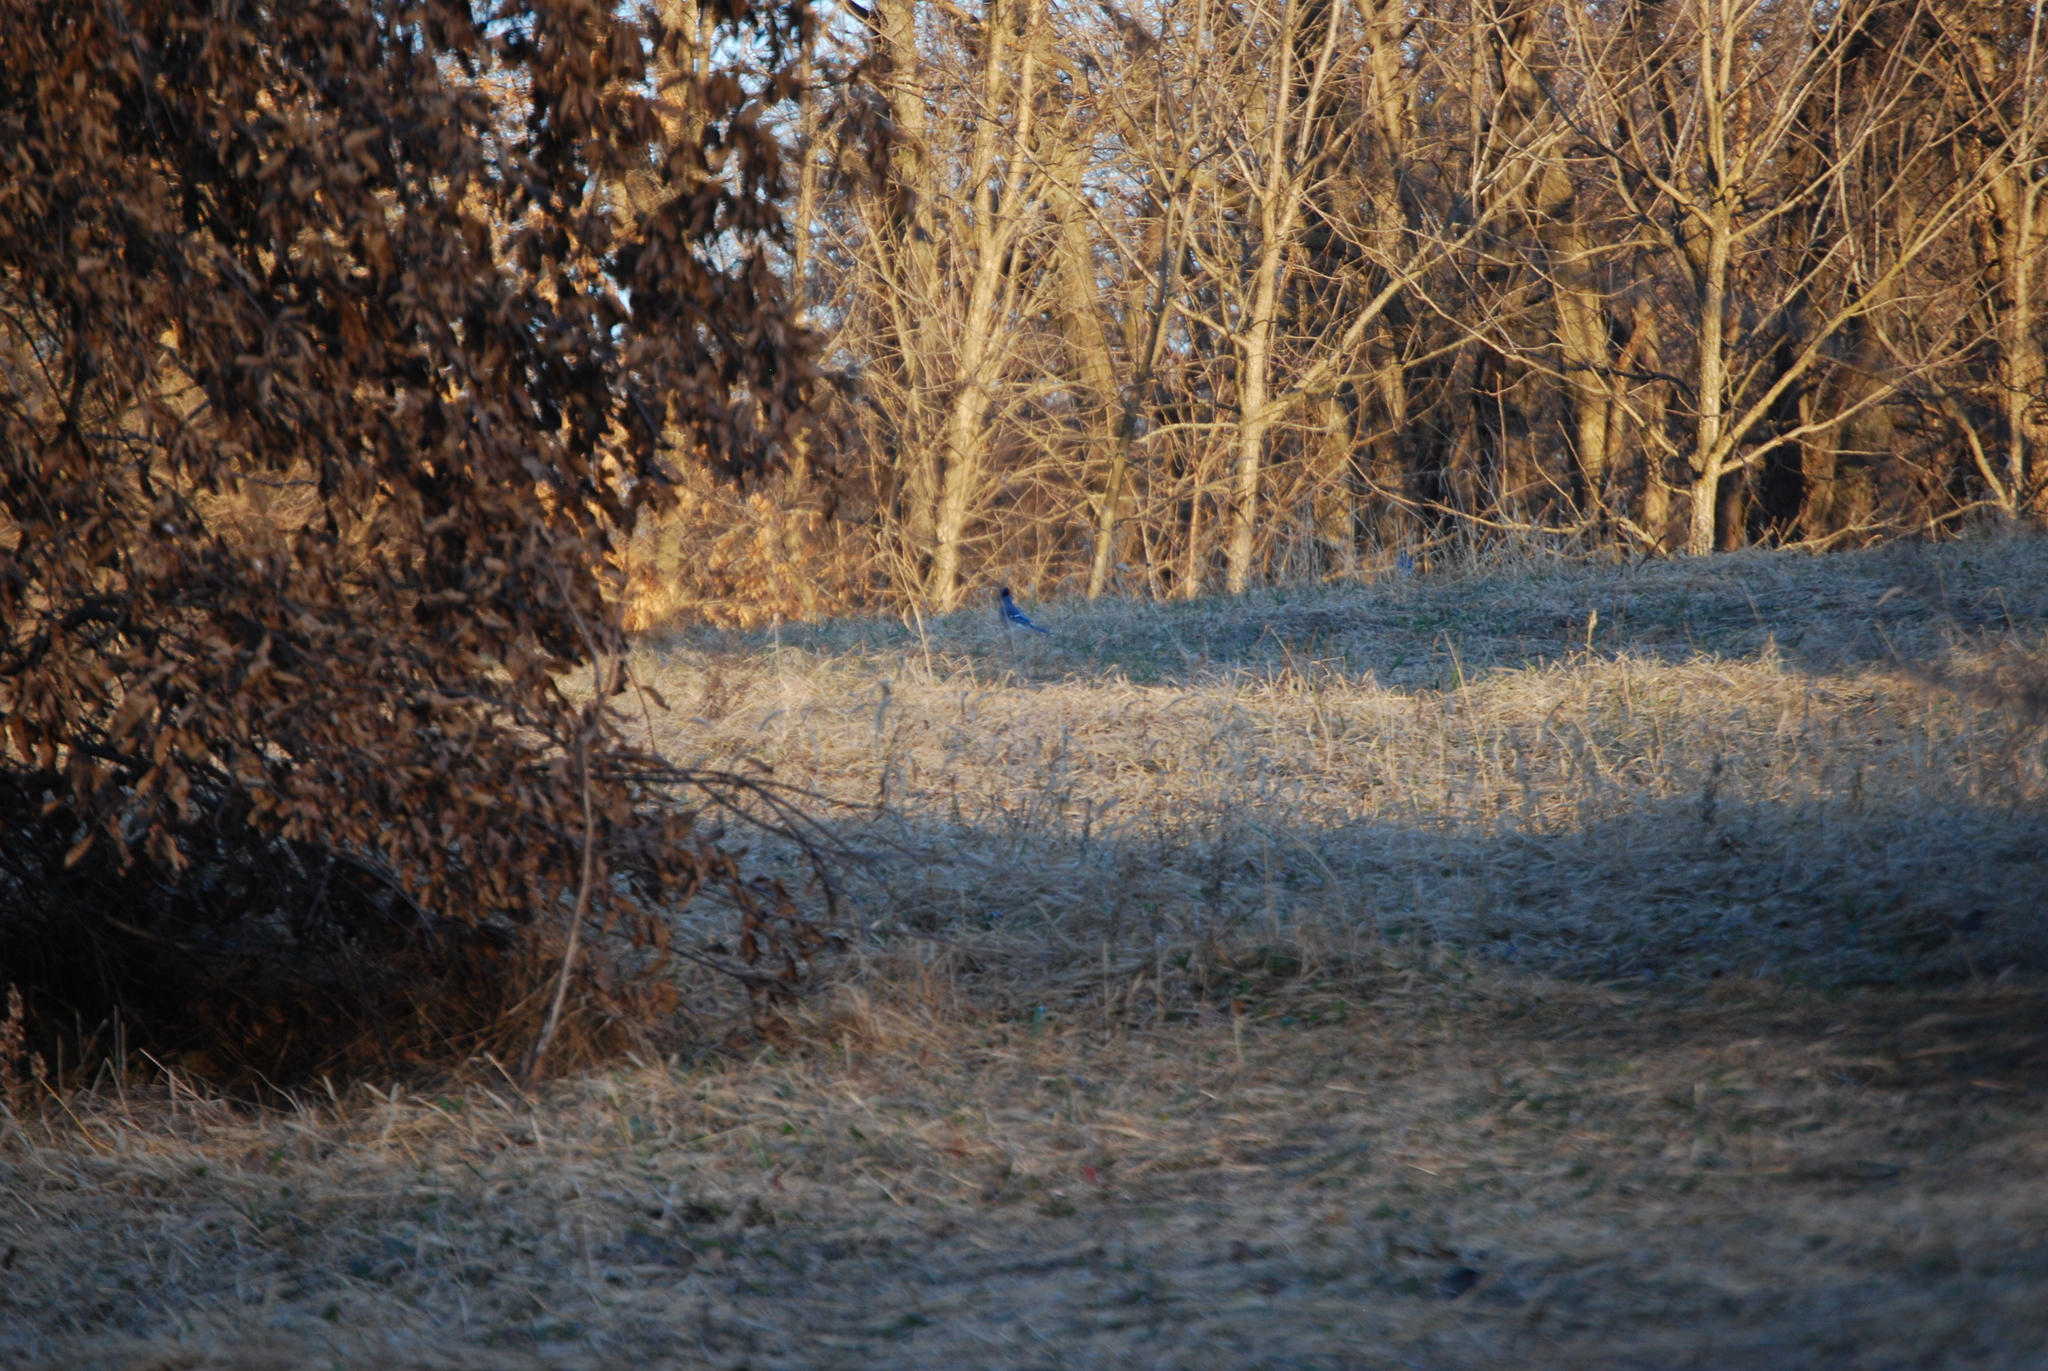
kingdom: Animalia
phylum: Chordata
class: Aves
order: Passeriformes
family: Corvidae
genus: Cyanocitta
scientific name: Cyanocitta cristata
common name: Blue jay
